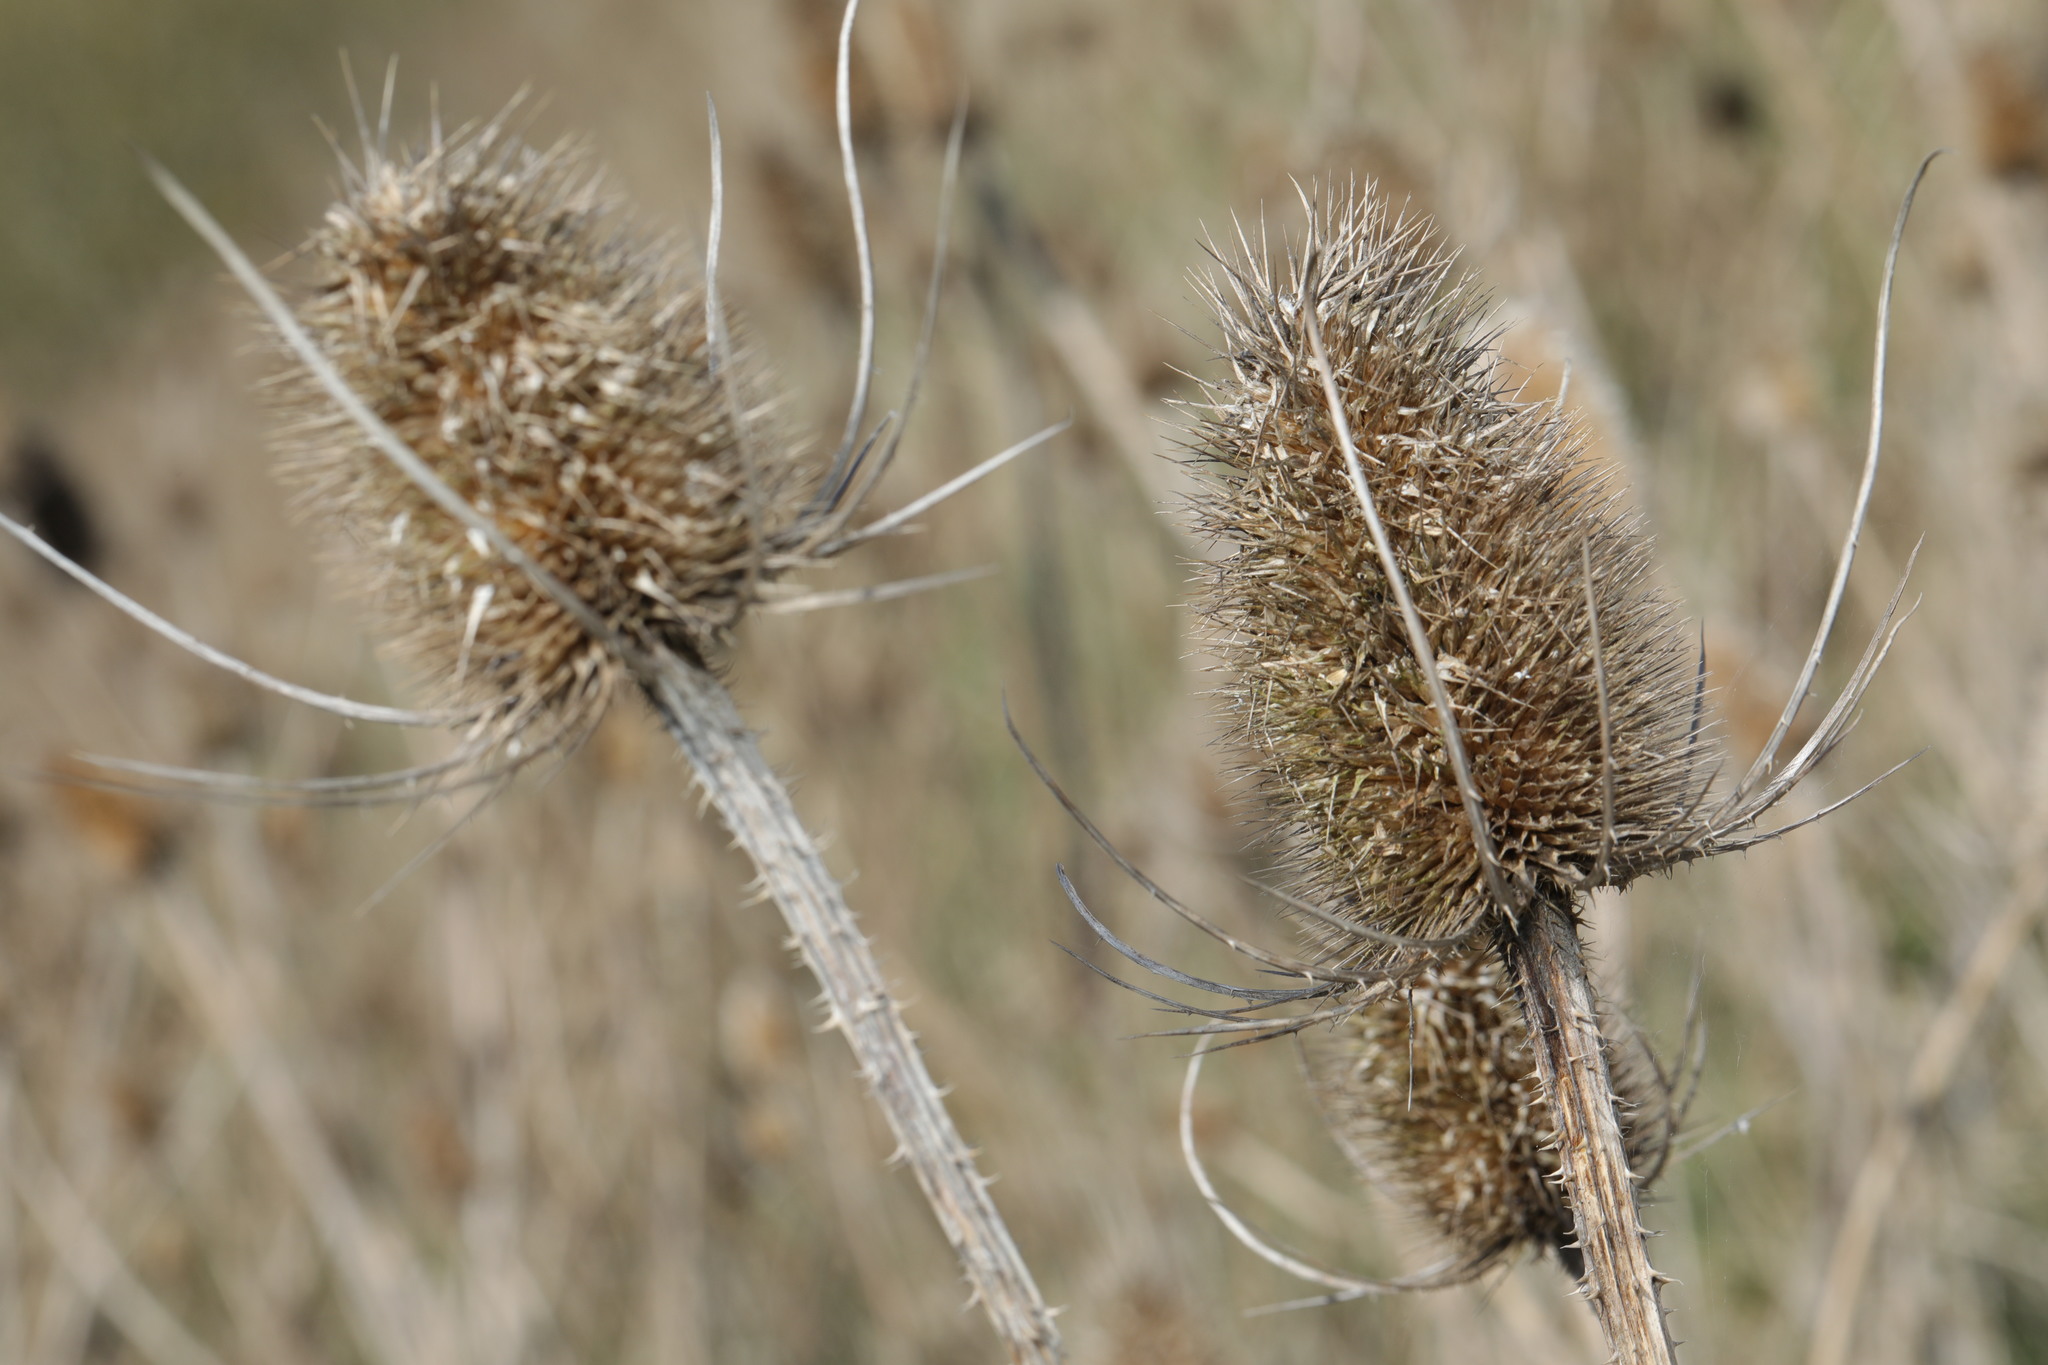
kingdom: Plantae
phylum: Tracheophyta
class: Magnoliopsida
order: Dipsacales
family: Caprifoliaceae
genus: Dipsacus
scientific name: Dipsacus fullonum
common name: Teasel
